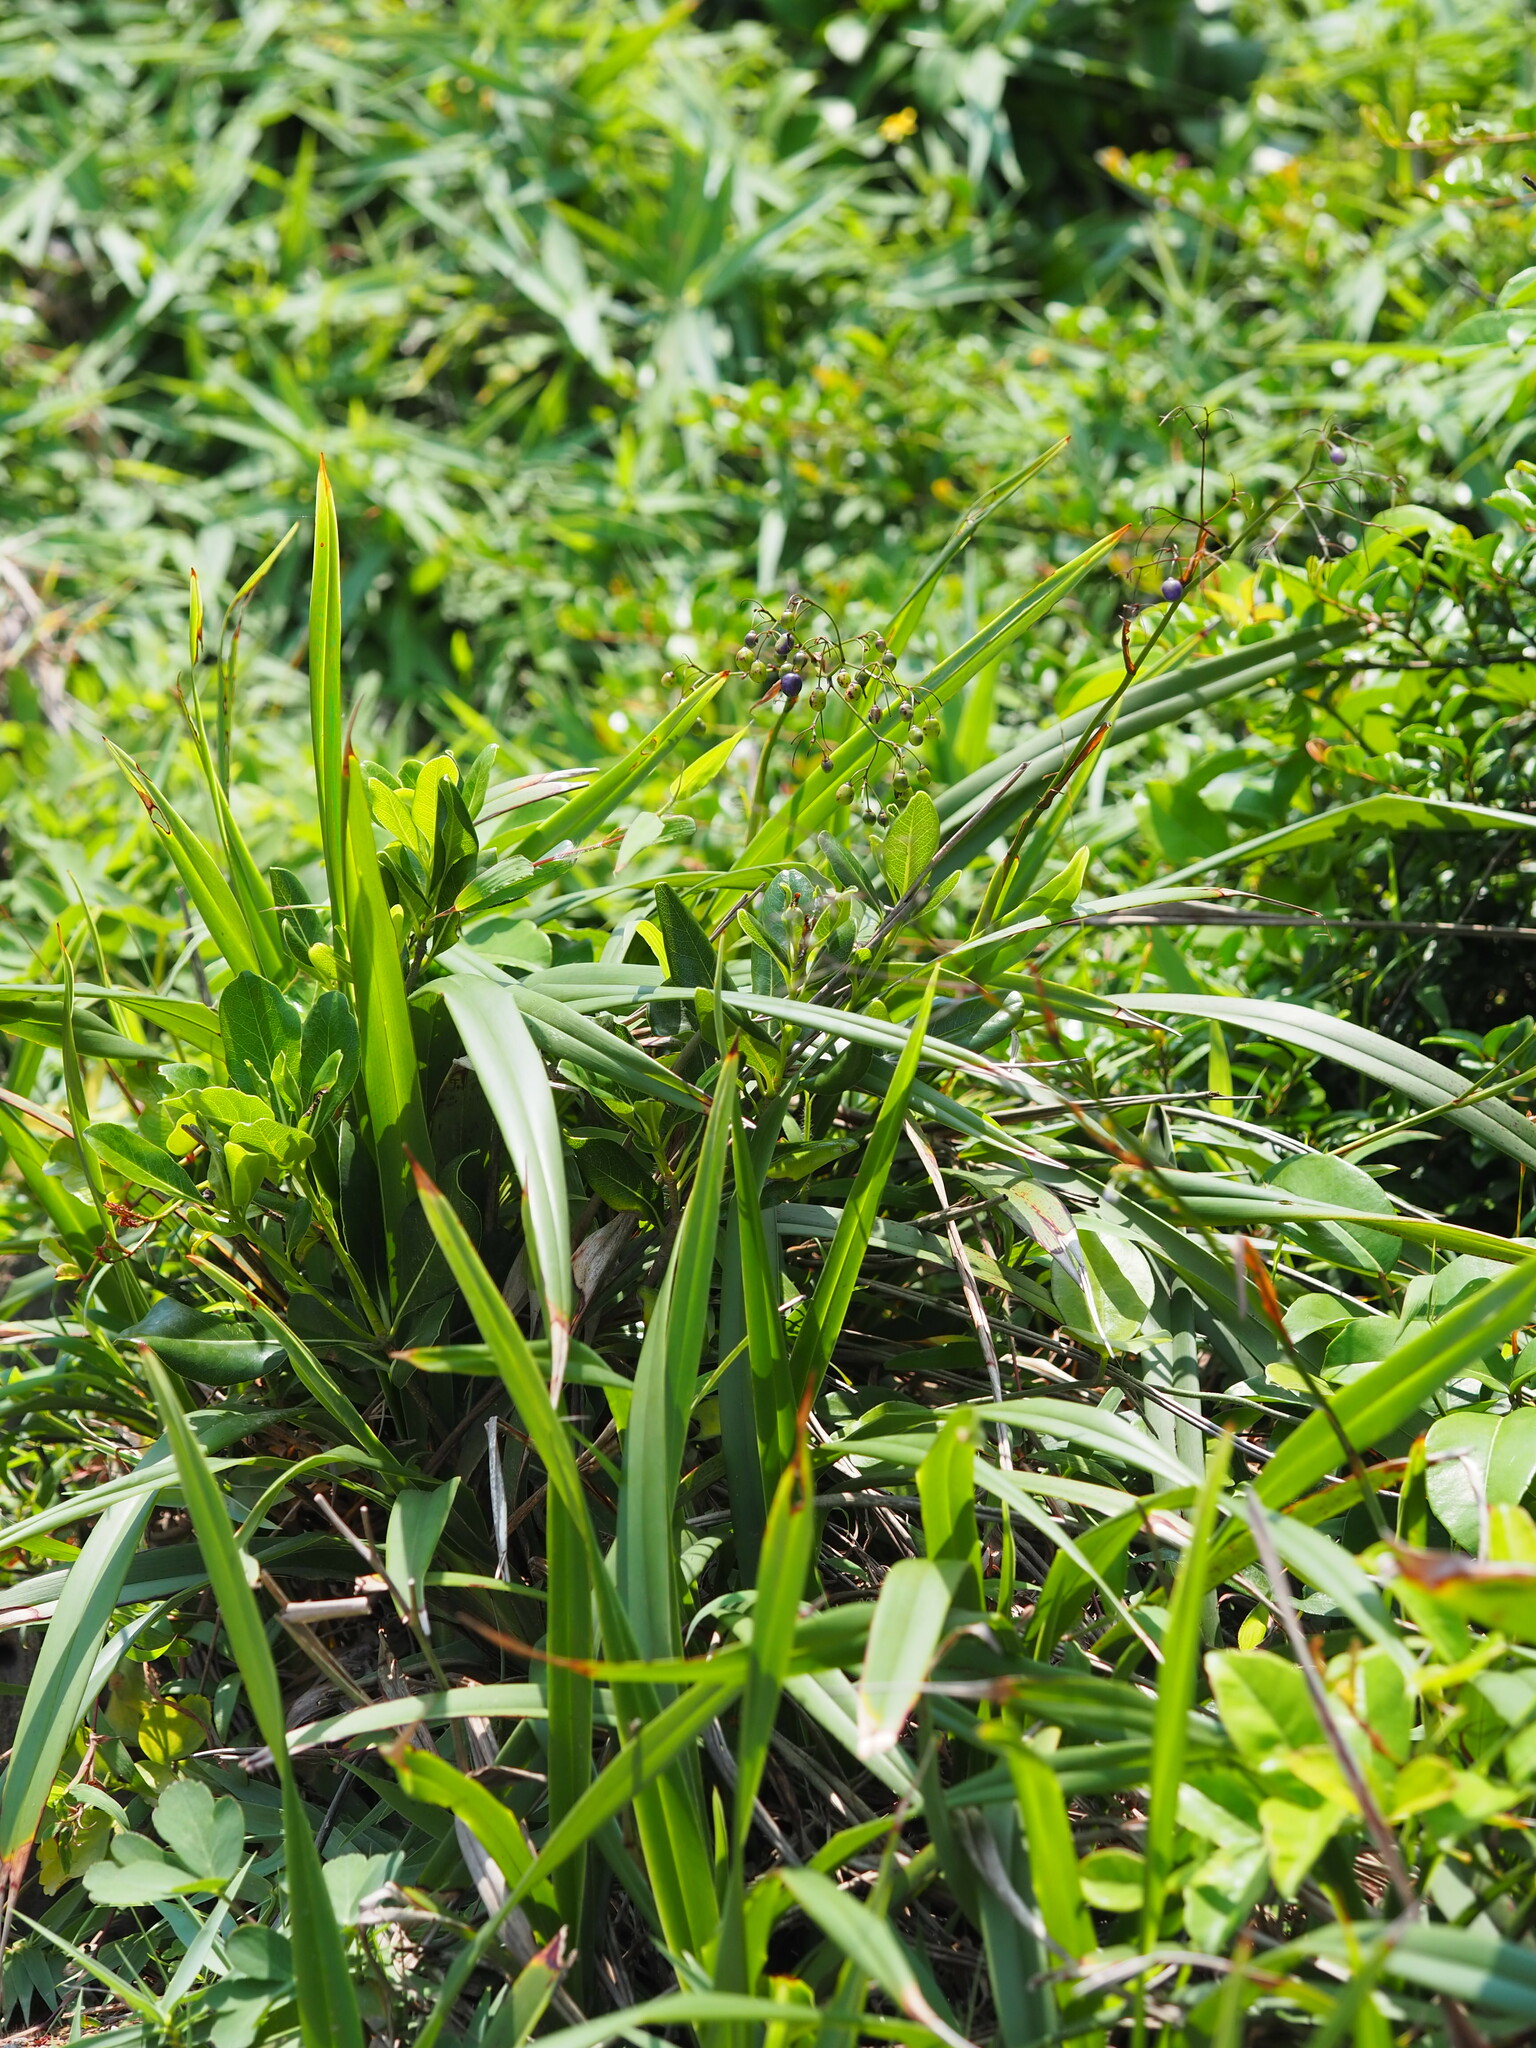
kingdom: Plantae
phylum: Tracheophyta
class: Liliopsida
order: Asparagales
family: Asphodelaceae
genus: Dianella
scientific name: Dianella ensifolia
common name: New zealand lilyplant
